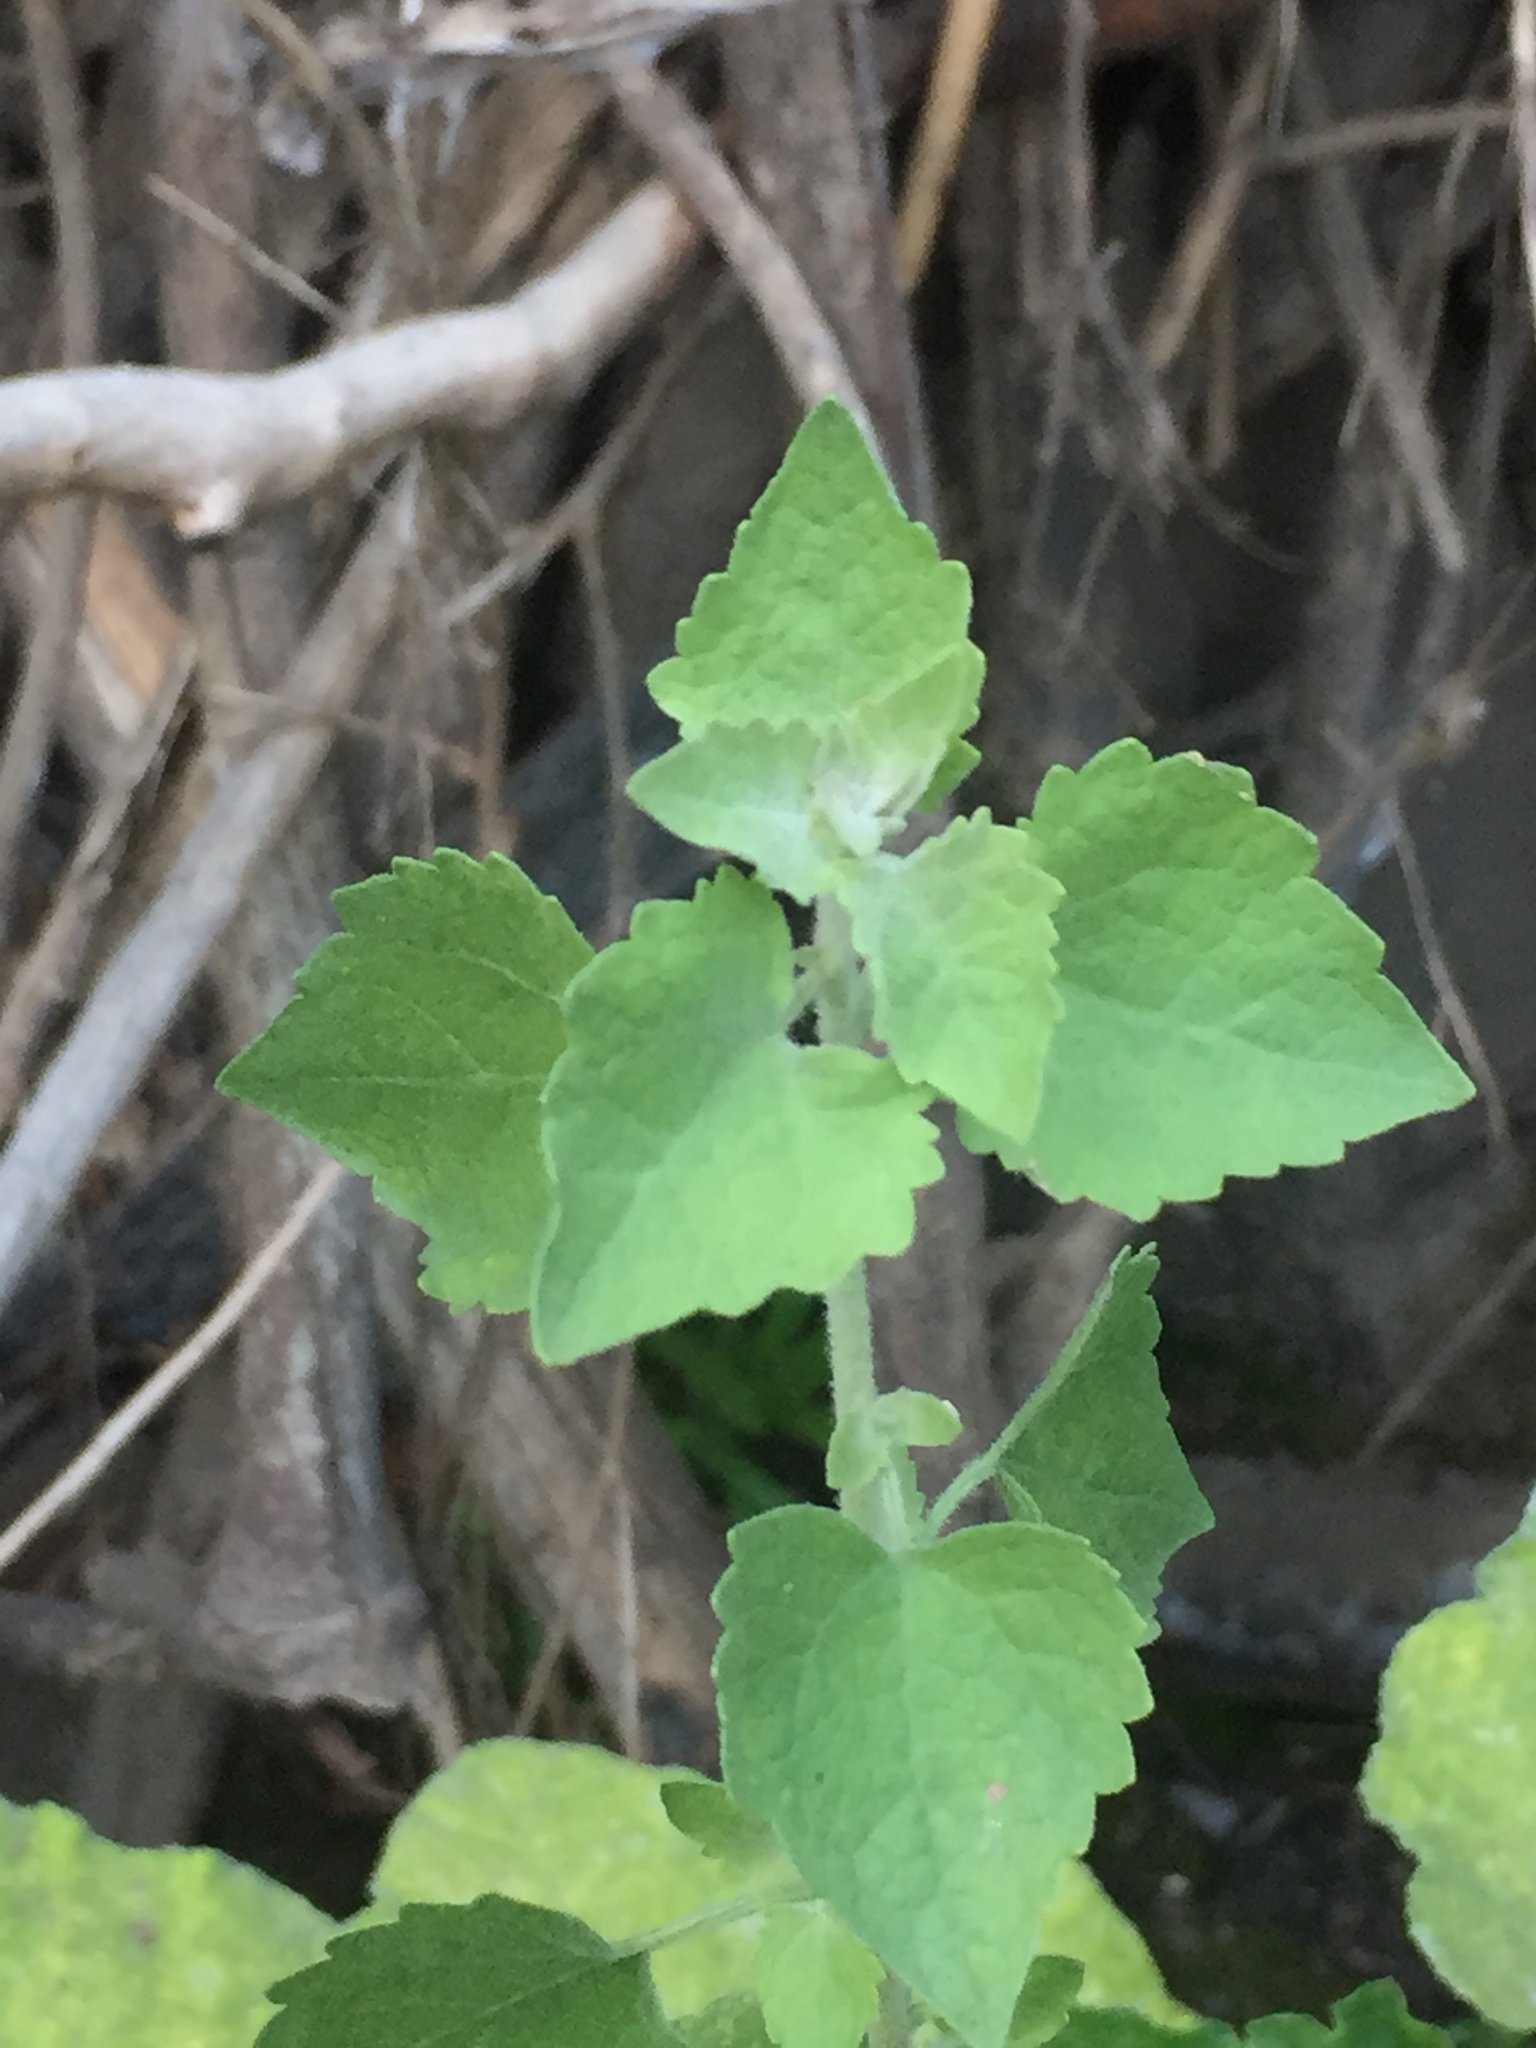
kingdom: Plantae
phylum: Tracheophyta
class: Magnoliopsida
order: Asterales
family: Asteraceae
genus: Brickellia
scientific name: Brickellia californica
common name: California brickellbush
